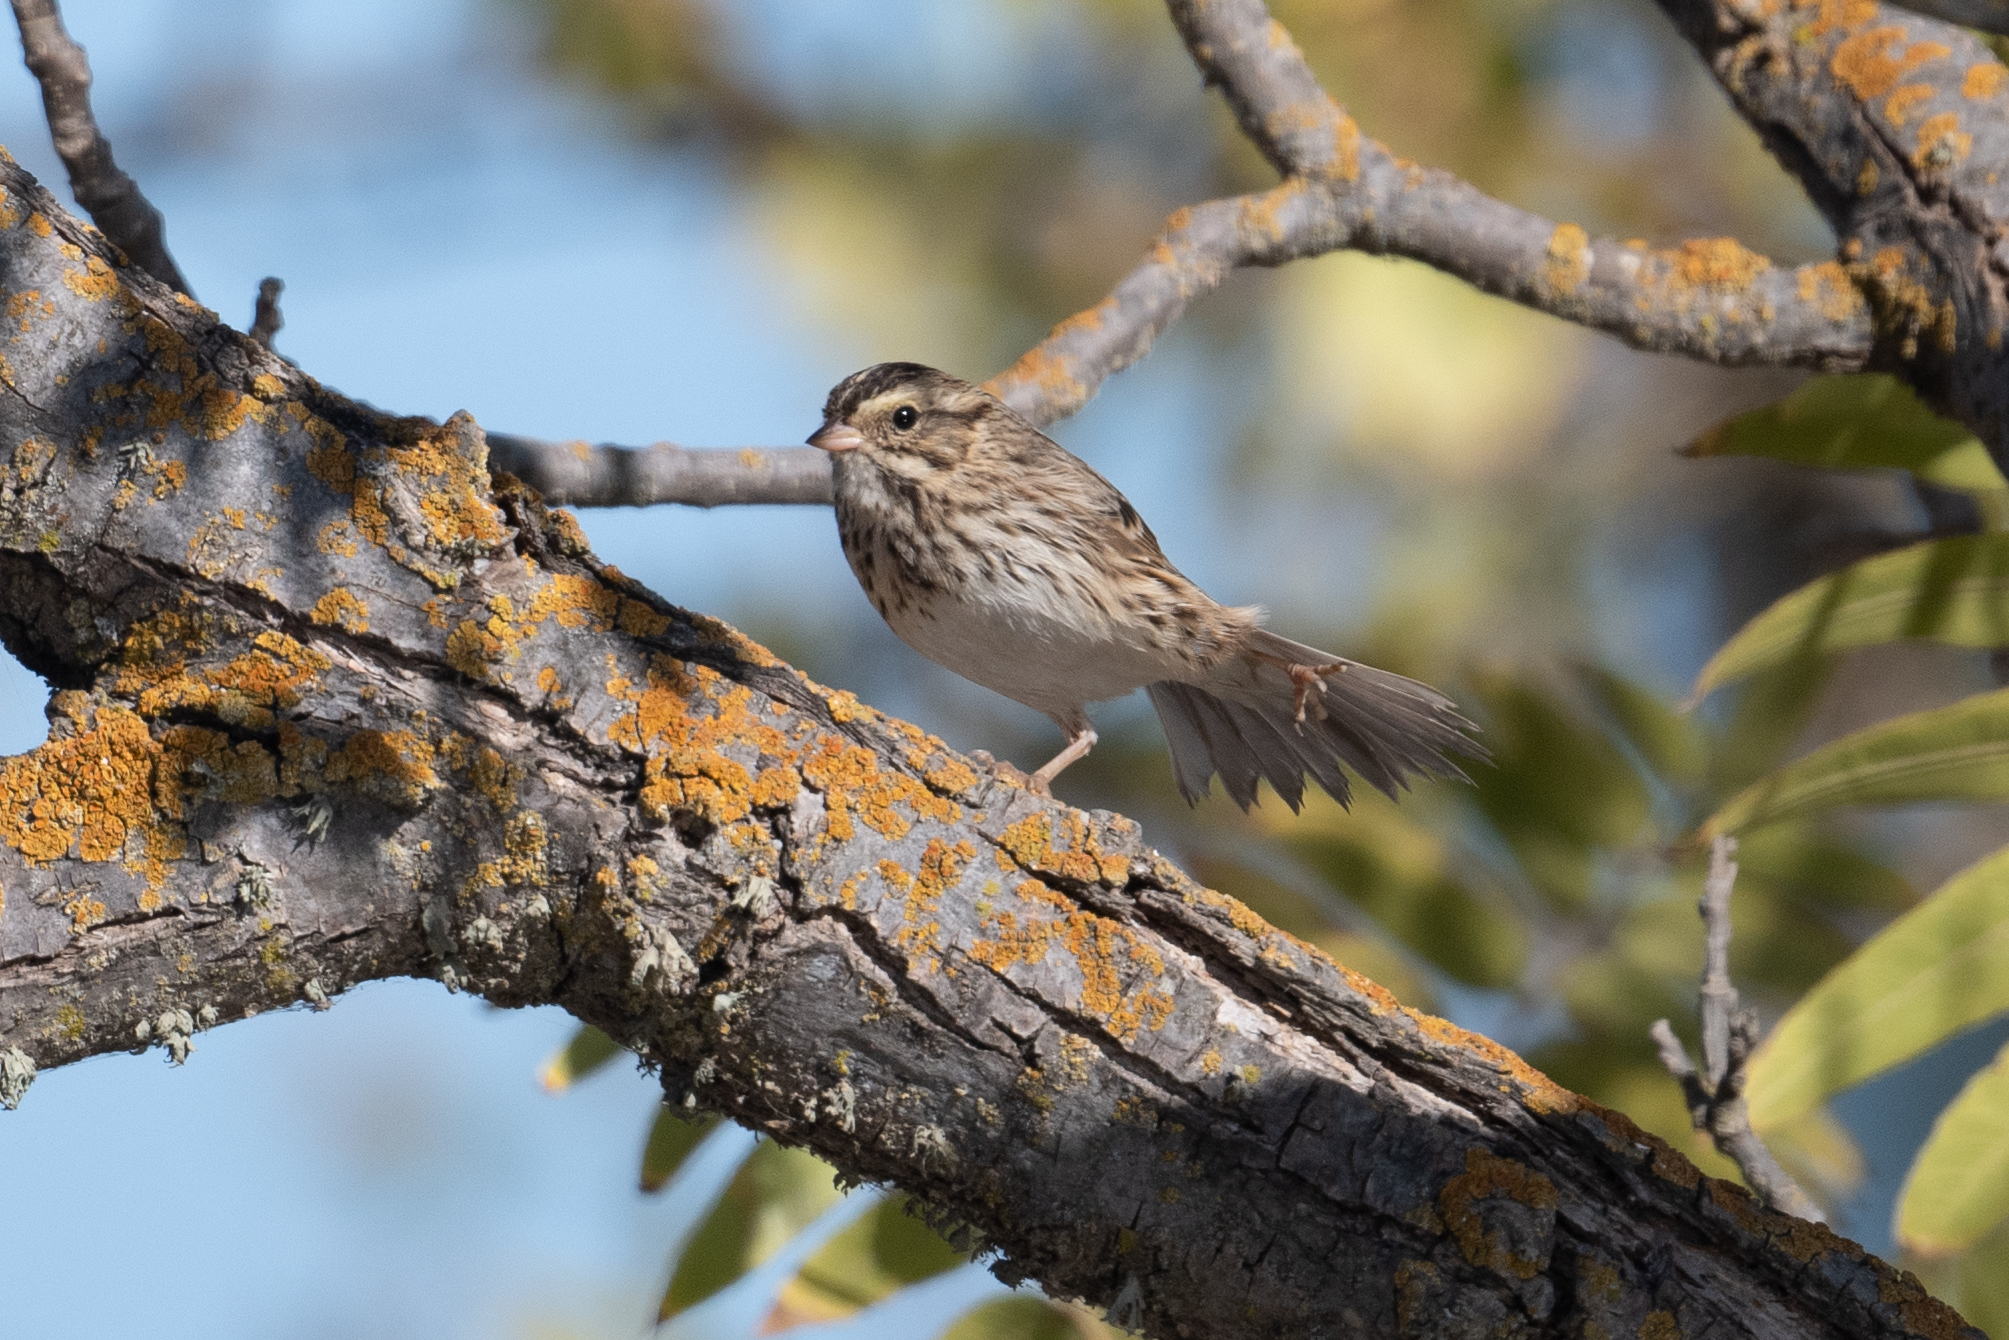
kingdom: Animalia
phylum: Chordata
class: Aves
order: Passeriformes
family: Passerellidae
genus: Passerculus
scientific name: Passerculus sandwichensis
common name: Savannah sparrow
